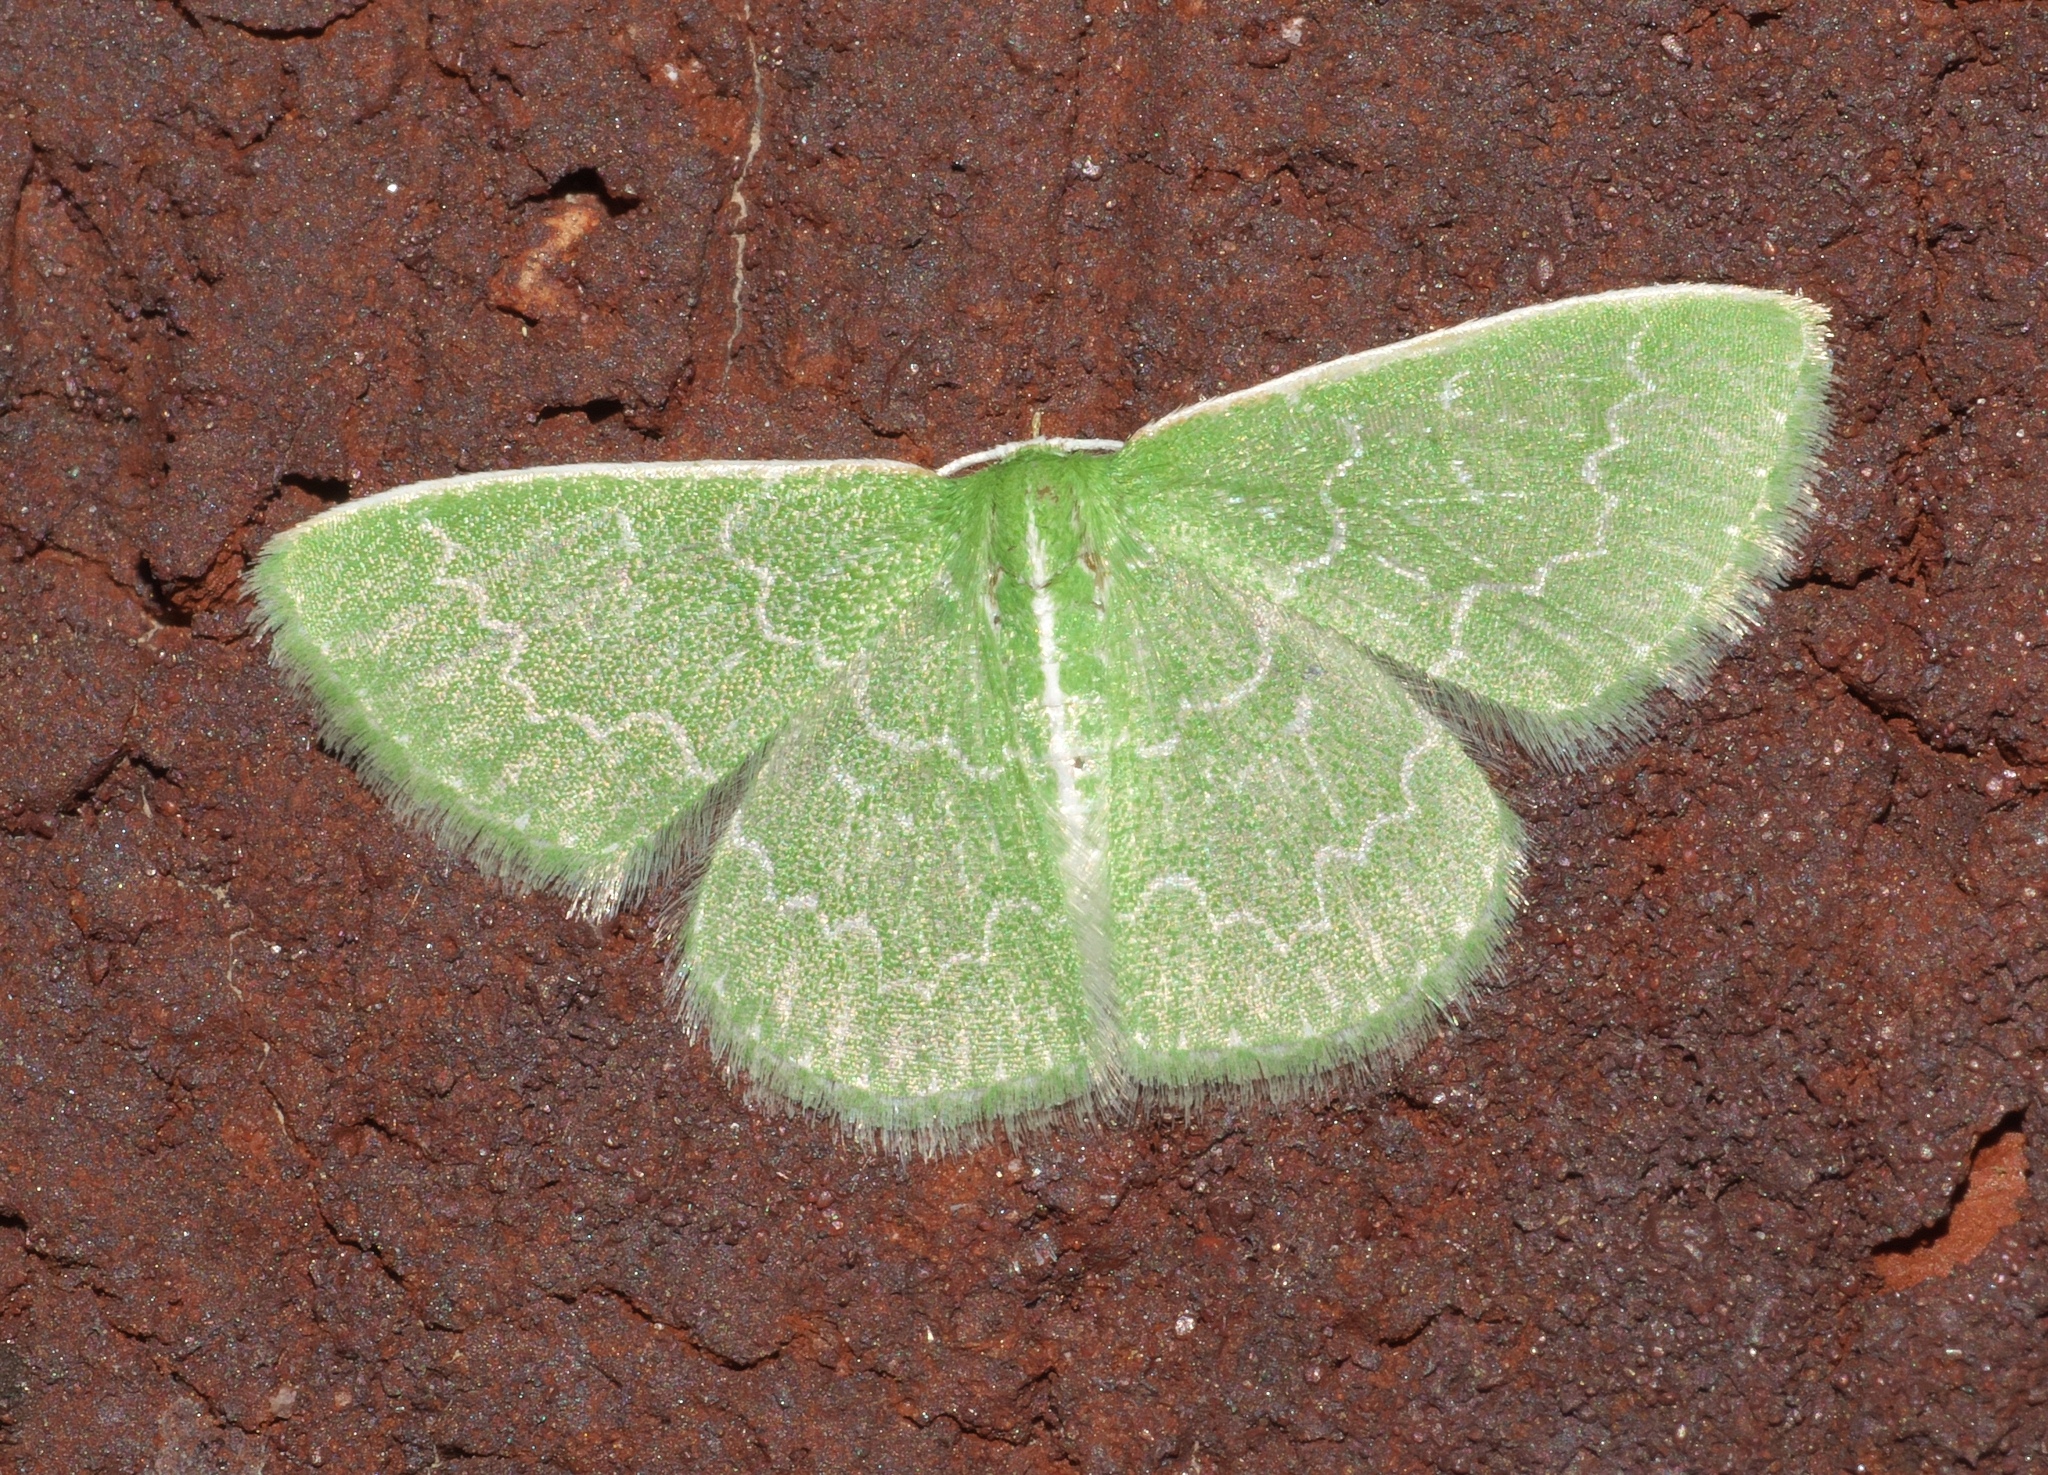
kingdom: Animalia
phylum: Arthropoda
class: Insecta
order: Lepidoptera
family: Geometridae
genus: Synchlora
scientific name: Synchlora frondaria
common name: Southern emerald
